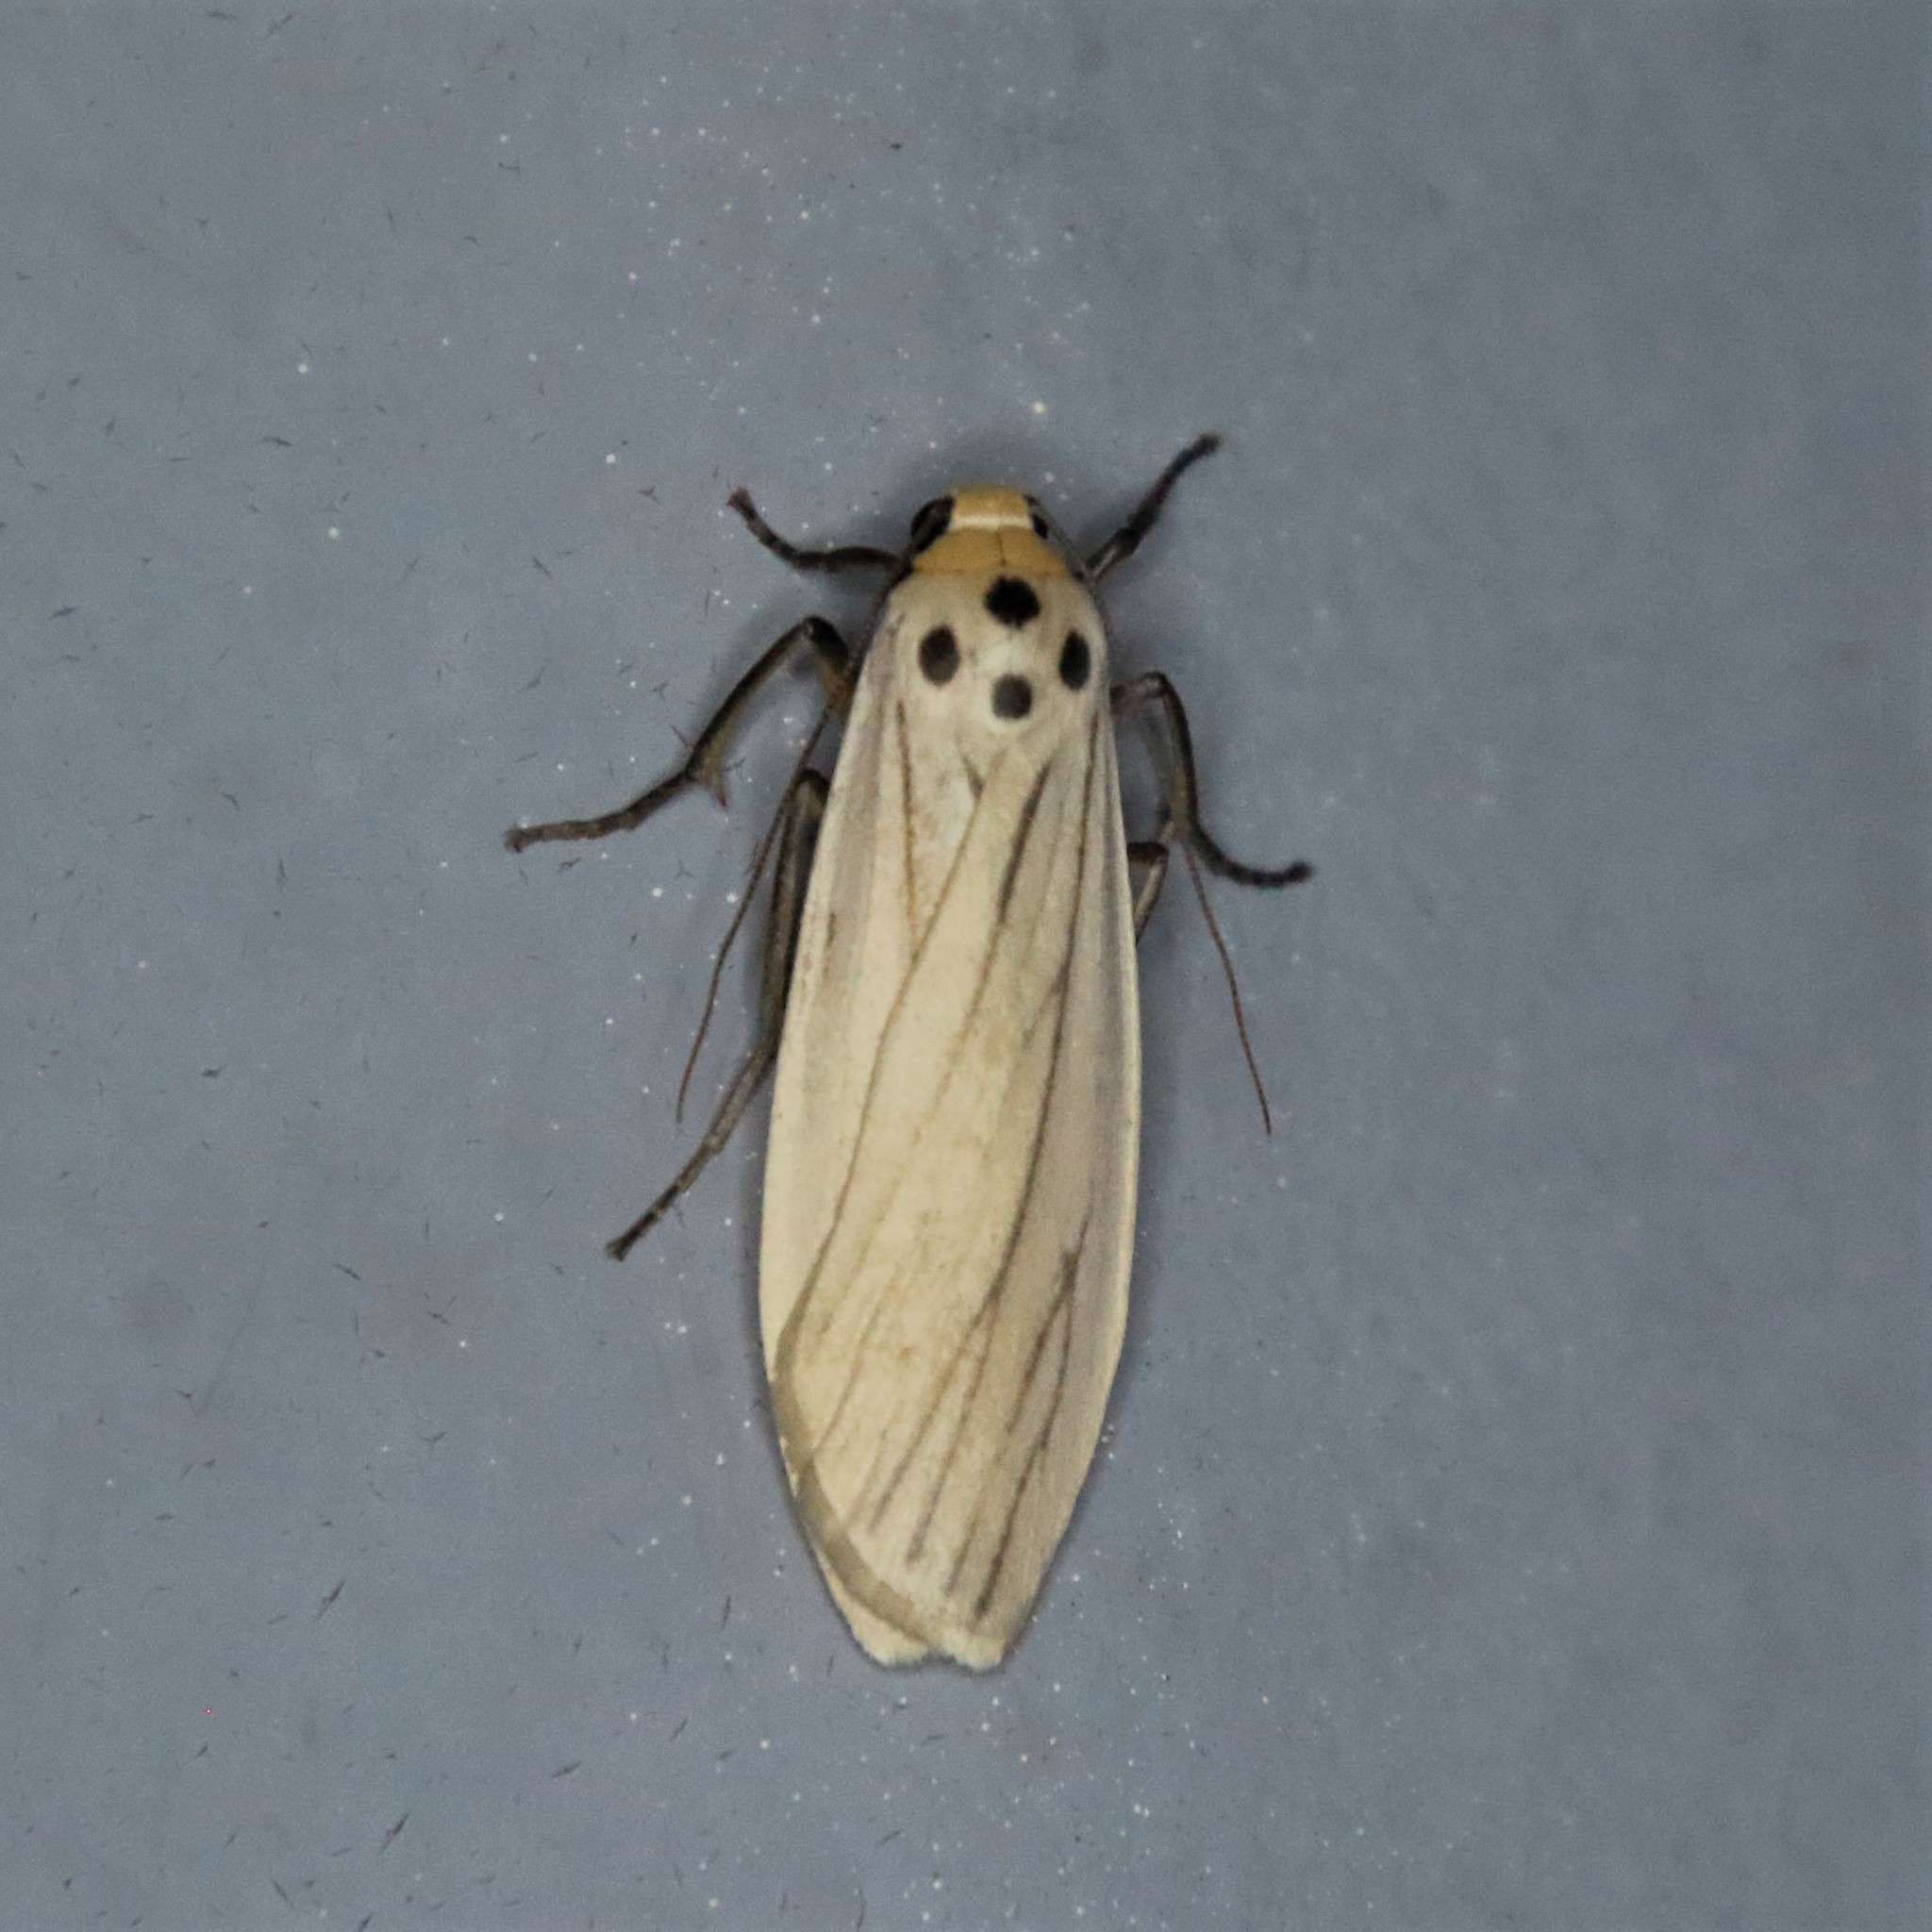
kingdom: Animalia
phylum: Arthropoda
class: Insecta
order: Lepidoptera
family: Erebidae
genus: Tigrioides
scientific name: Tigrioides leucanioides
